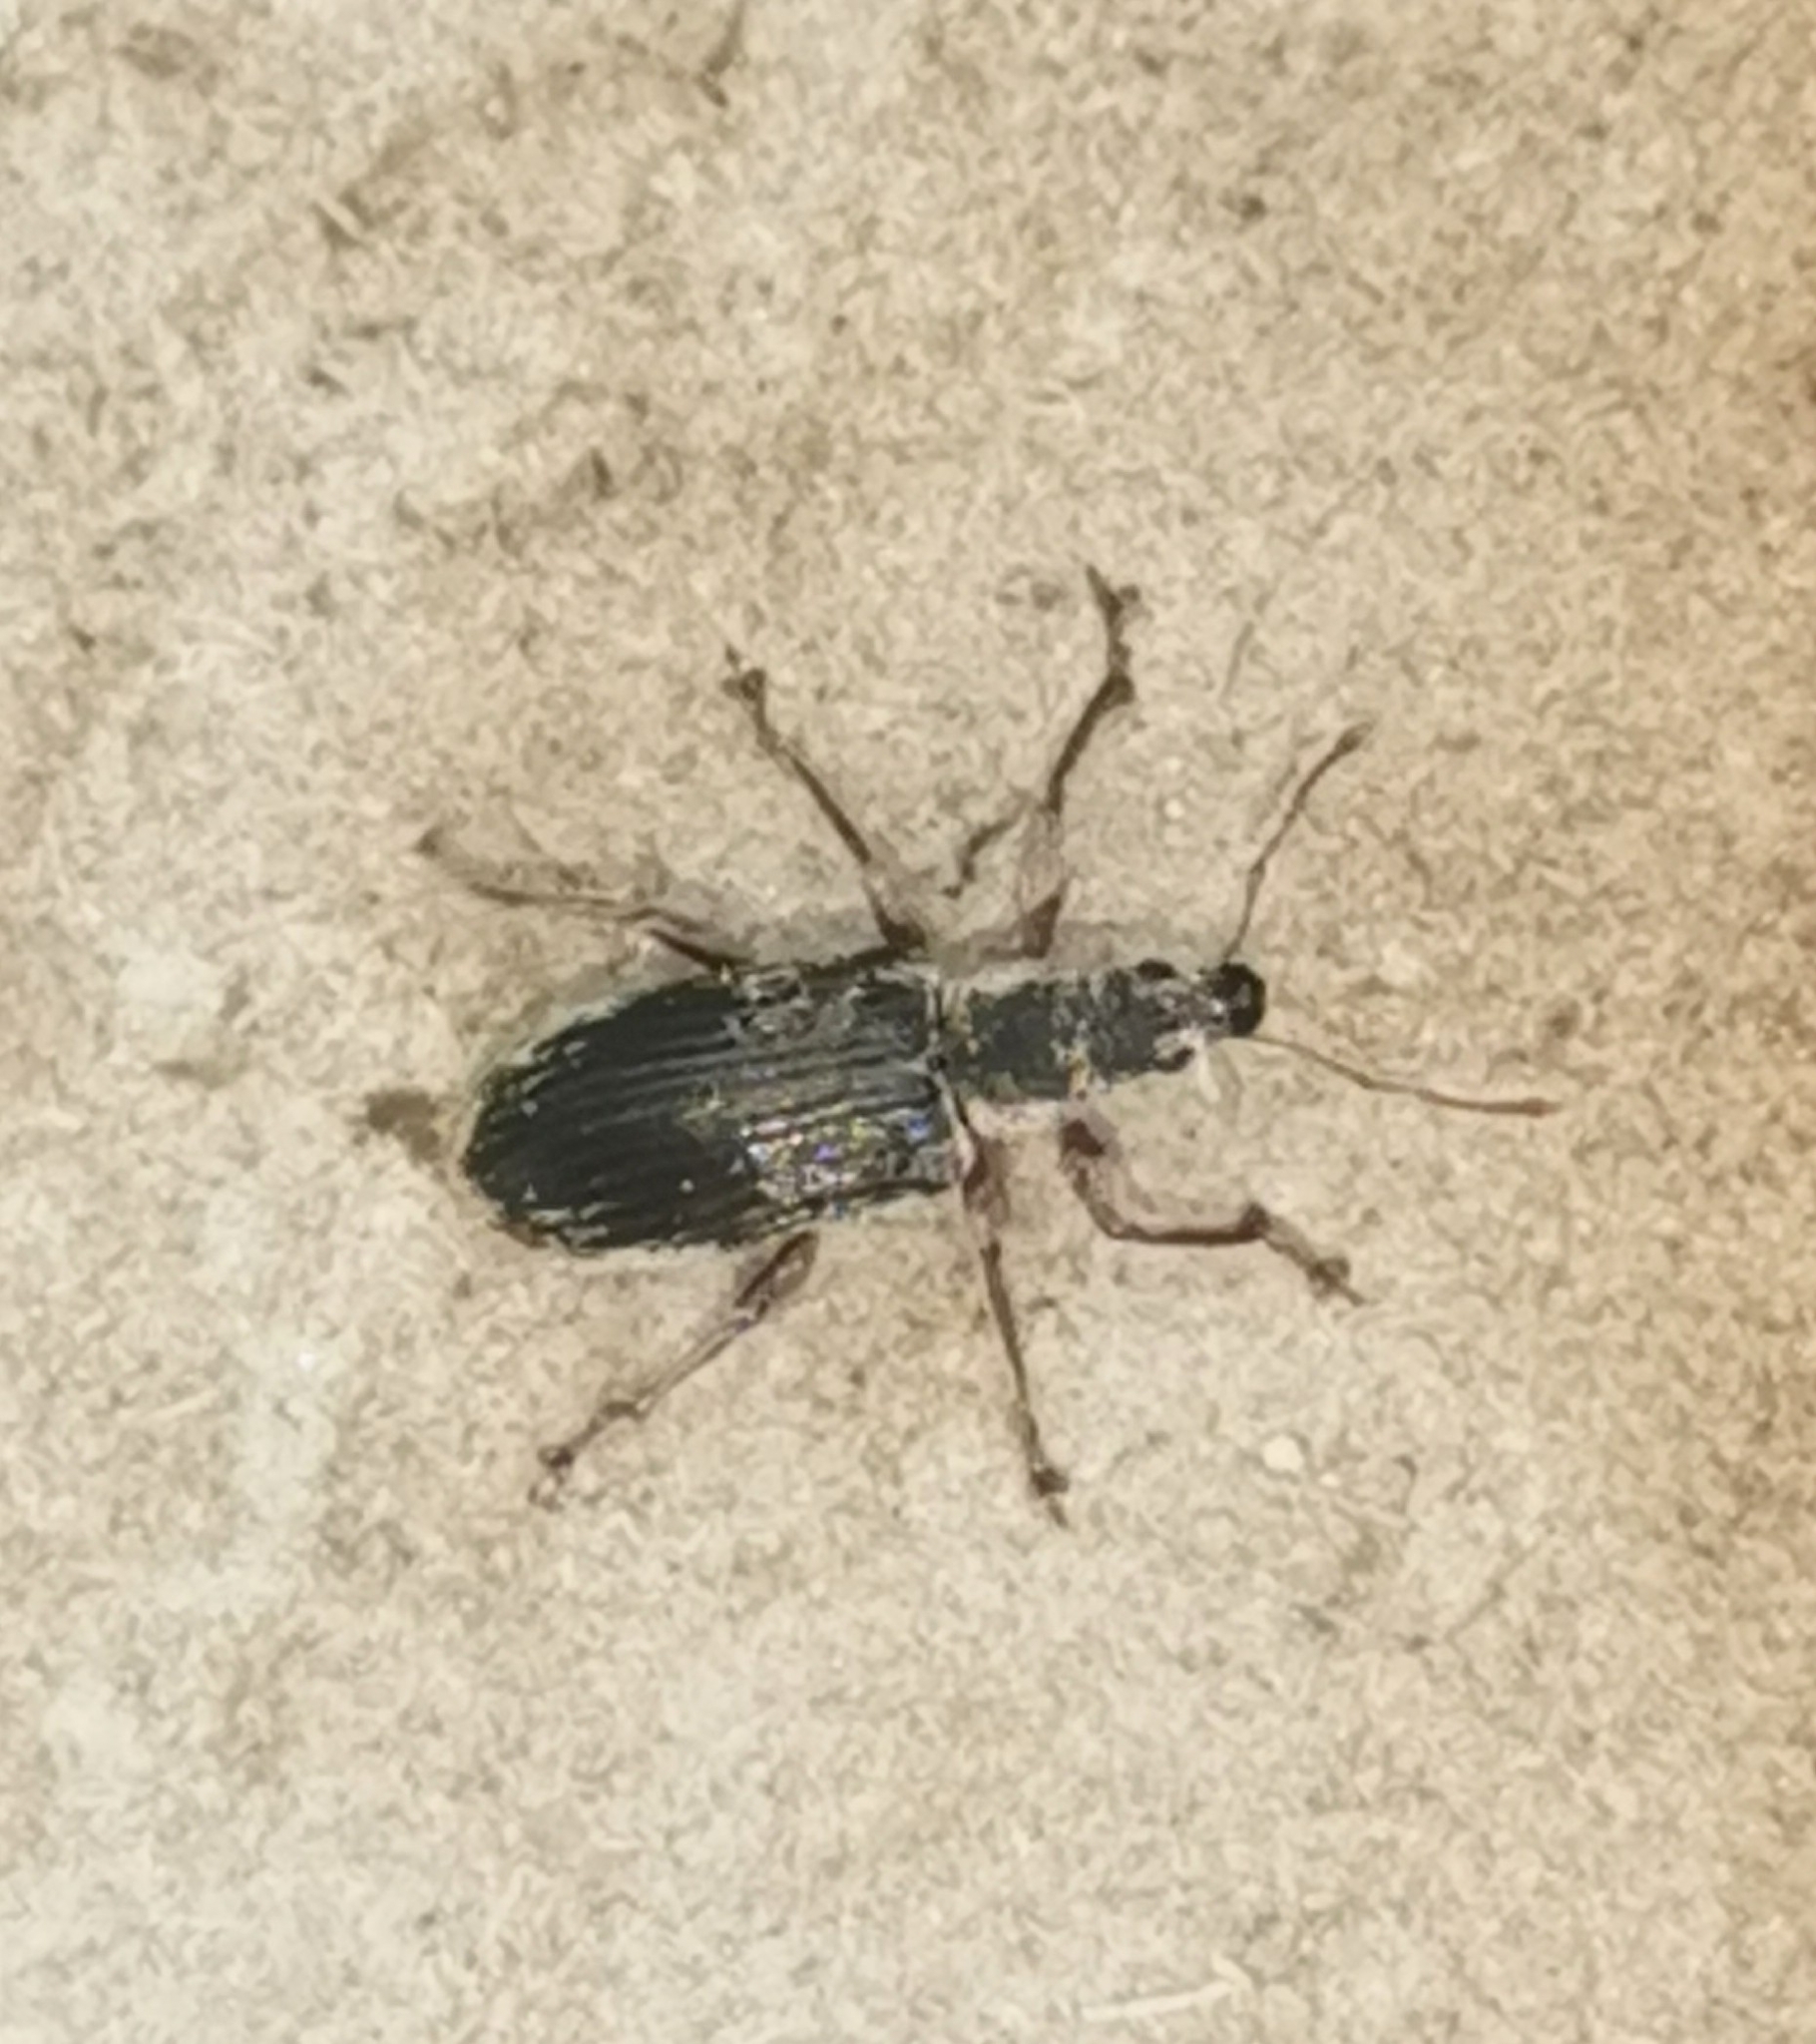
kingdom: Animalia
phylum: Arthropoda
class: Insecta
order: Coleoptera
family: Curculionidae
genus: Polydrusus
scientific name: Polydrusus pilosus
